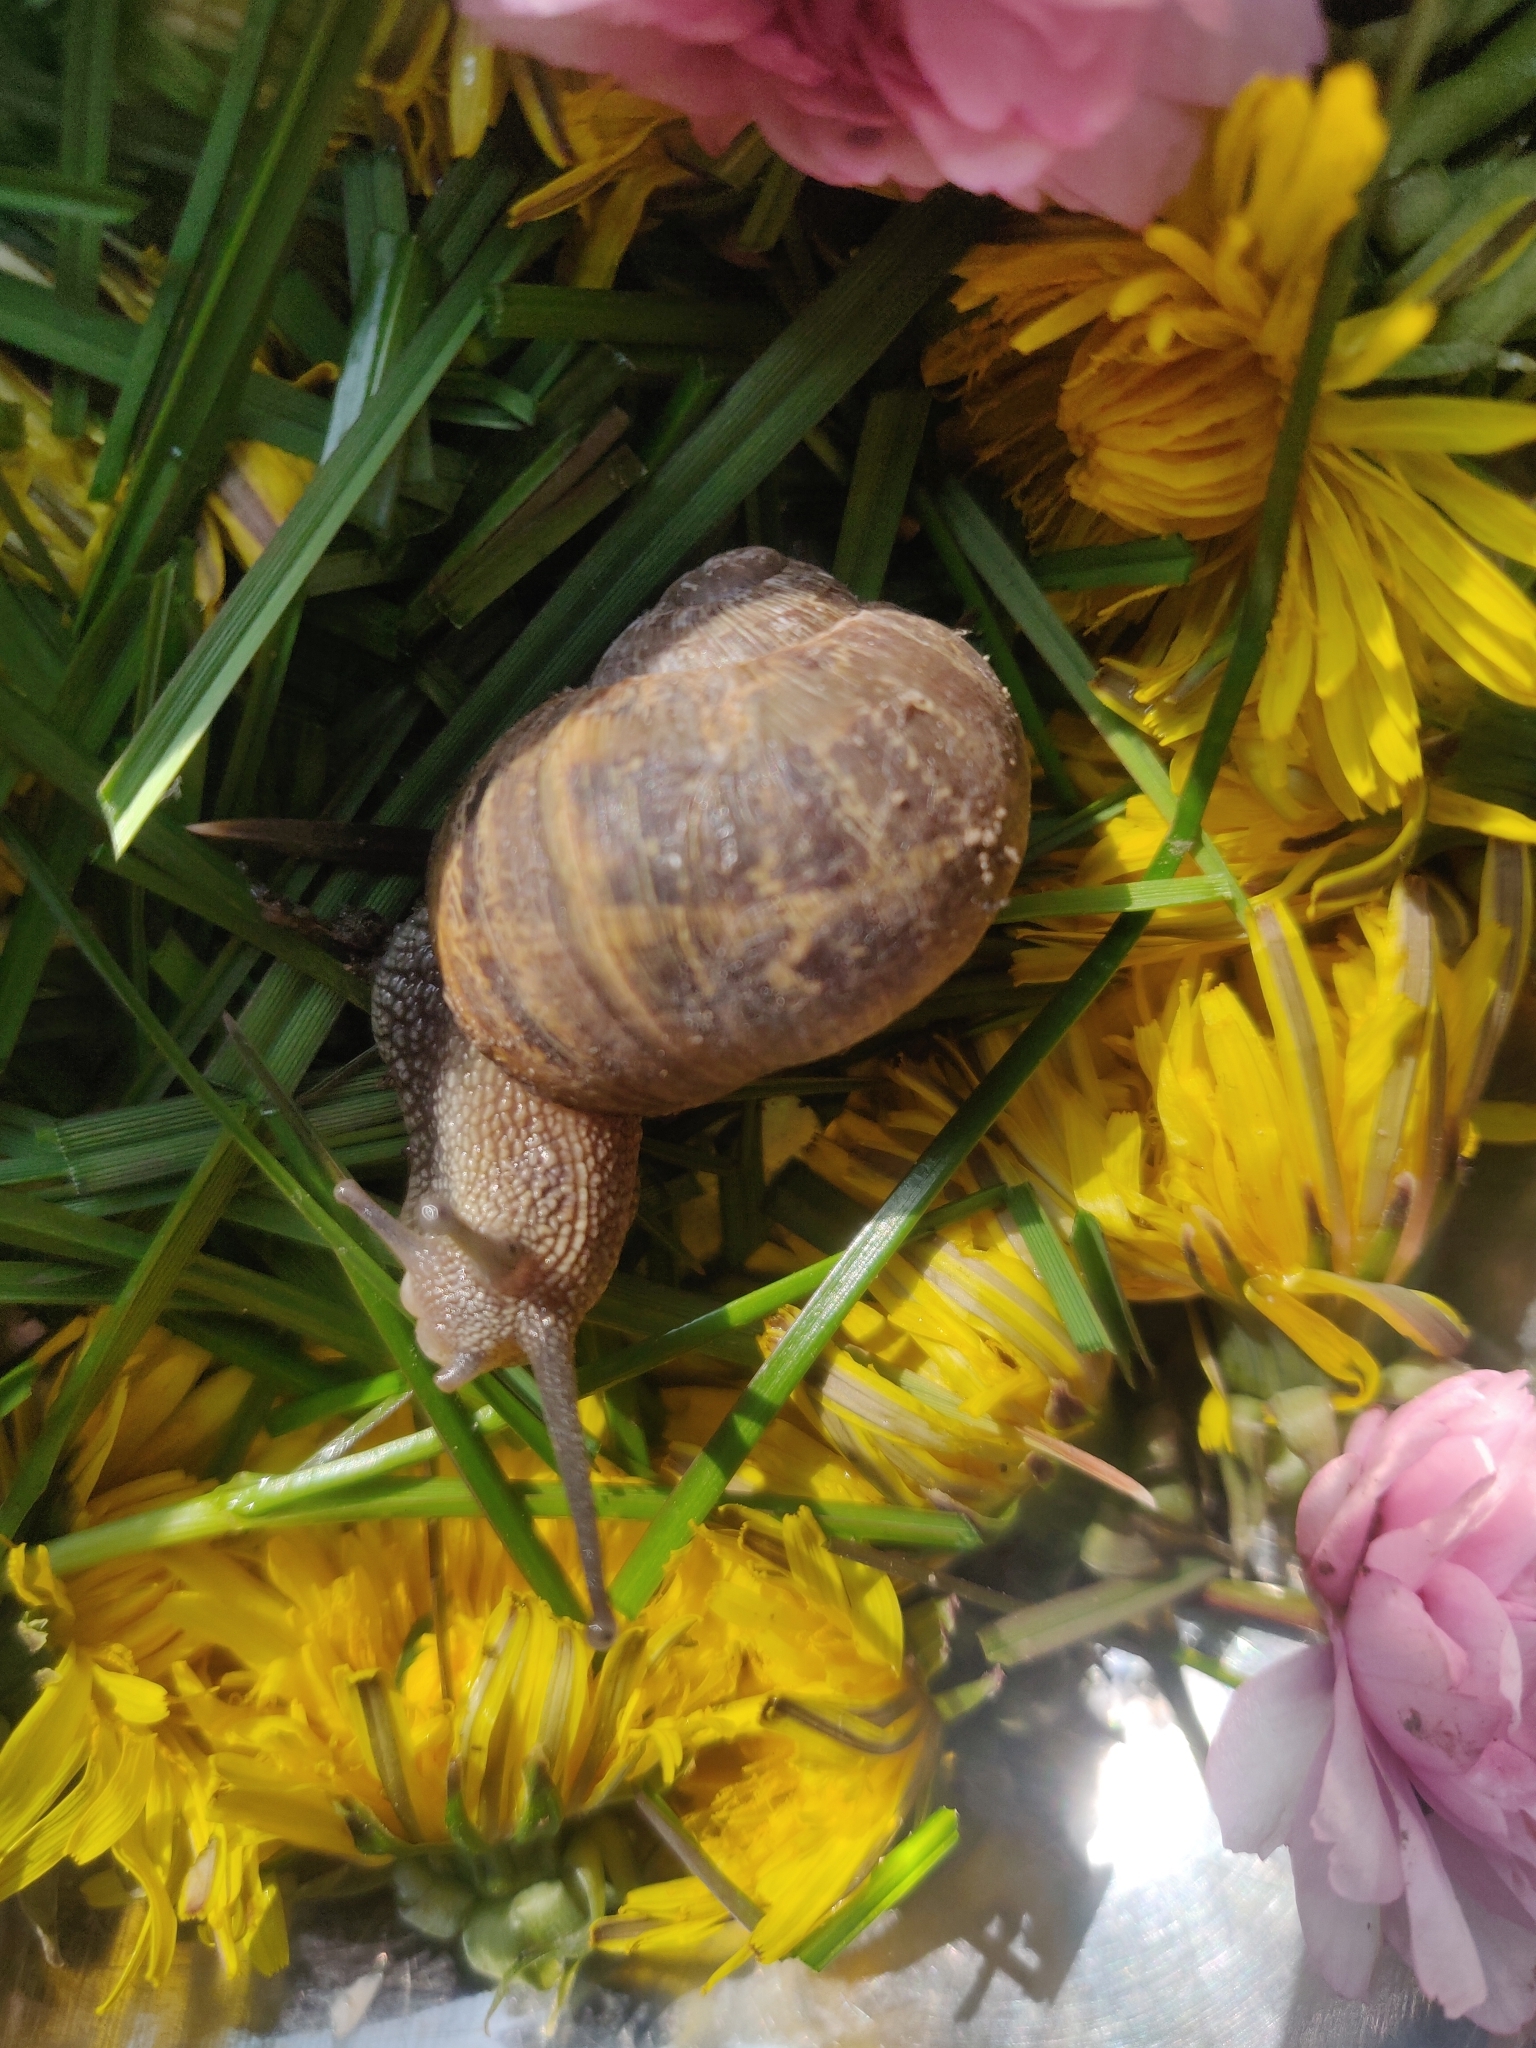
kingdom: Animalia
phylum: Mollusca
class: Gastropoda
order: Stylommatophora
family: Helicidae
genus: Cornu
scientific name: Cornu aspersum
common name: Brown garden snail
